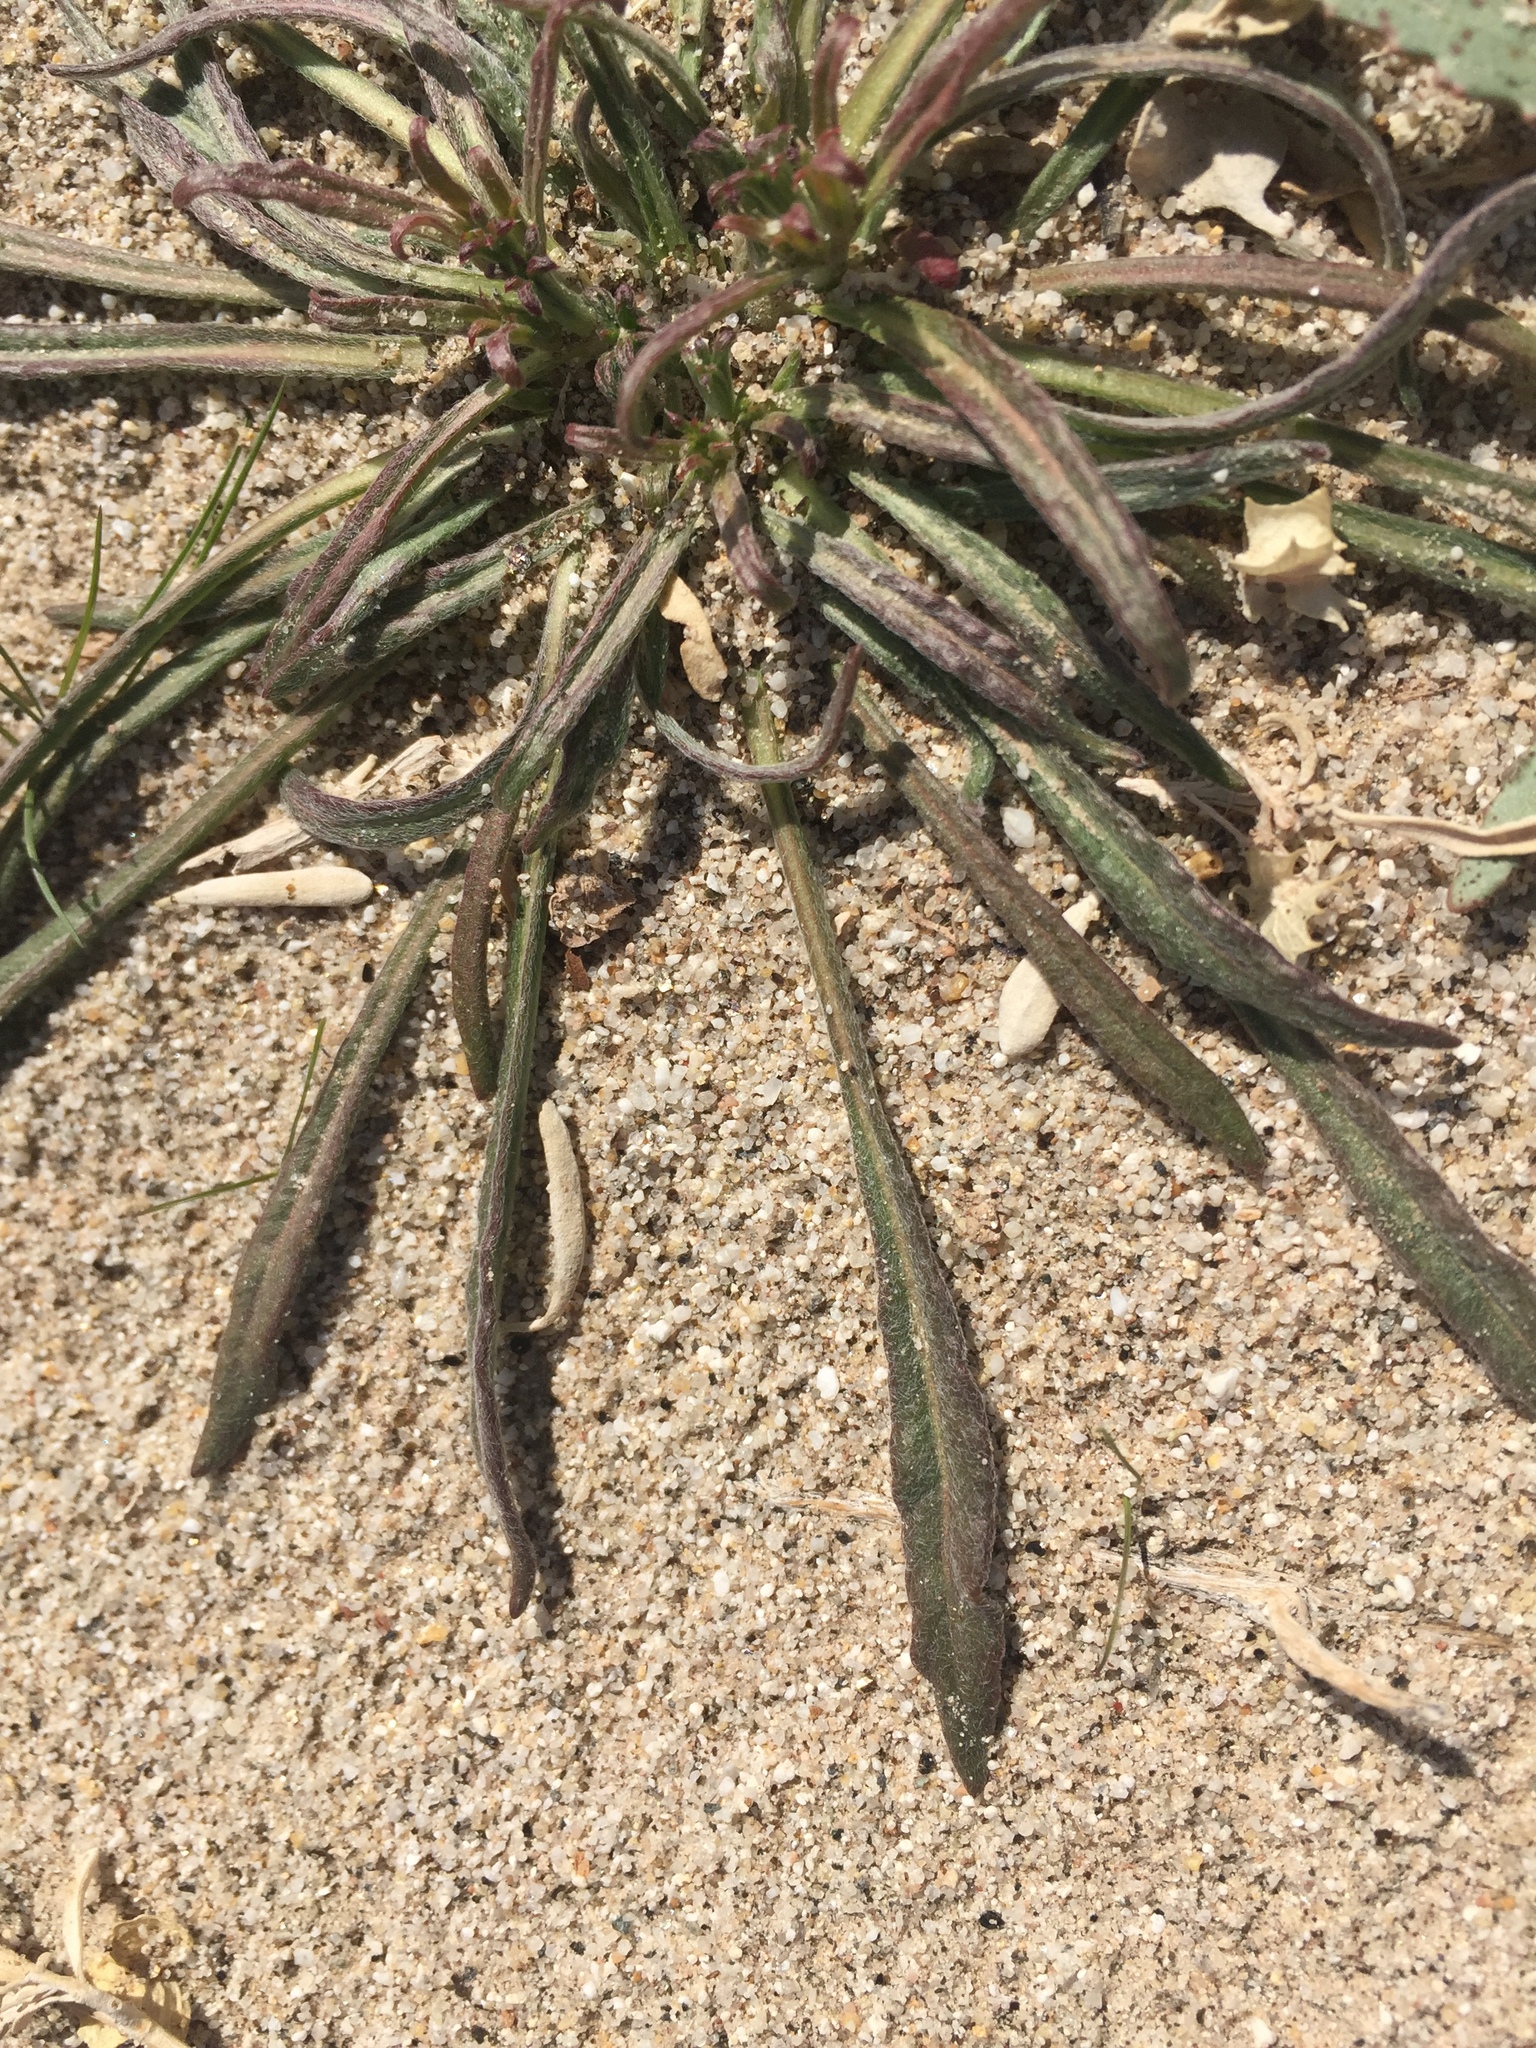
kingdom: Plantae
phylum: Tracheophyta
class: Magnoliopsida
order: Caryophyllales
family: Polygonaceae
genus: Chorizanthe
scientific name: Chorizanthe brevicornu
